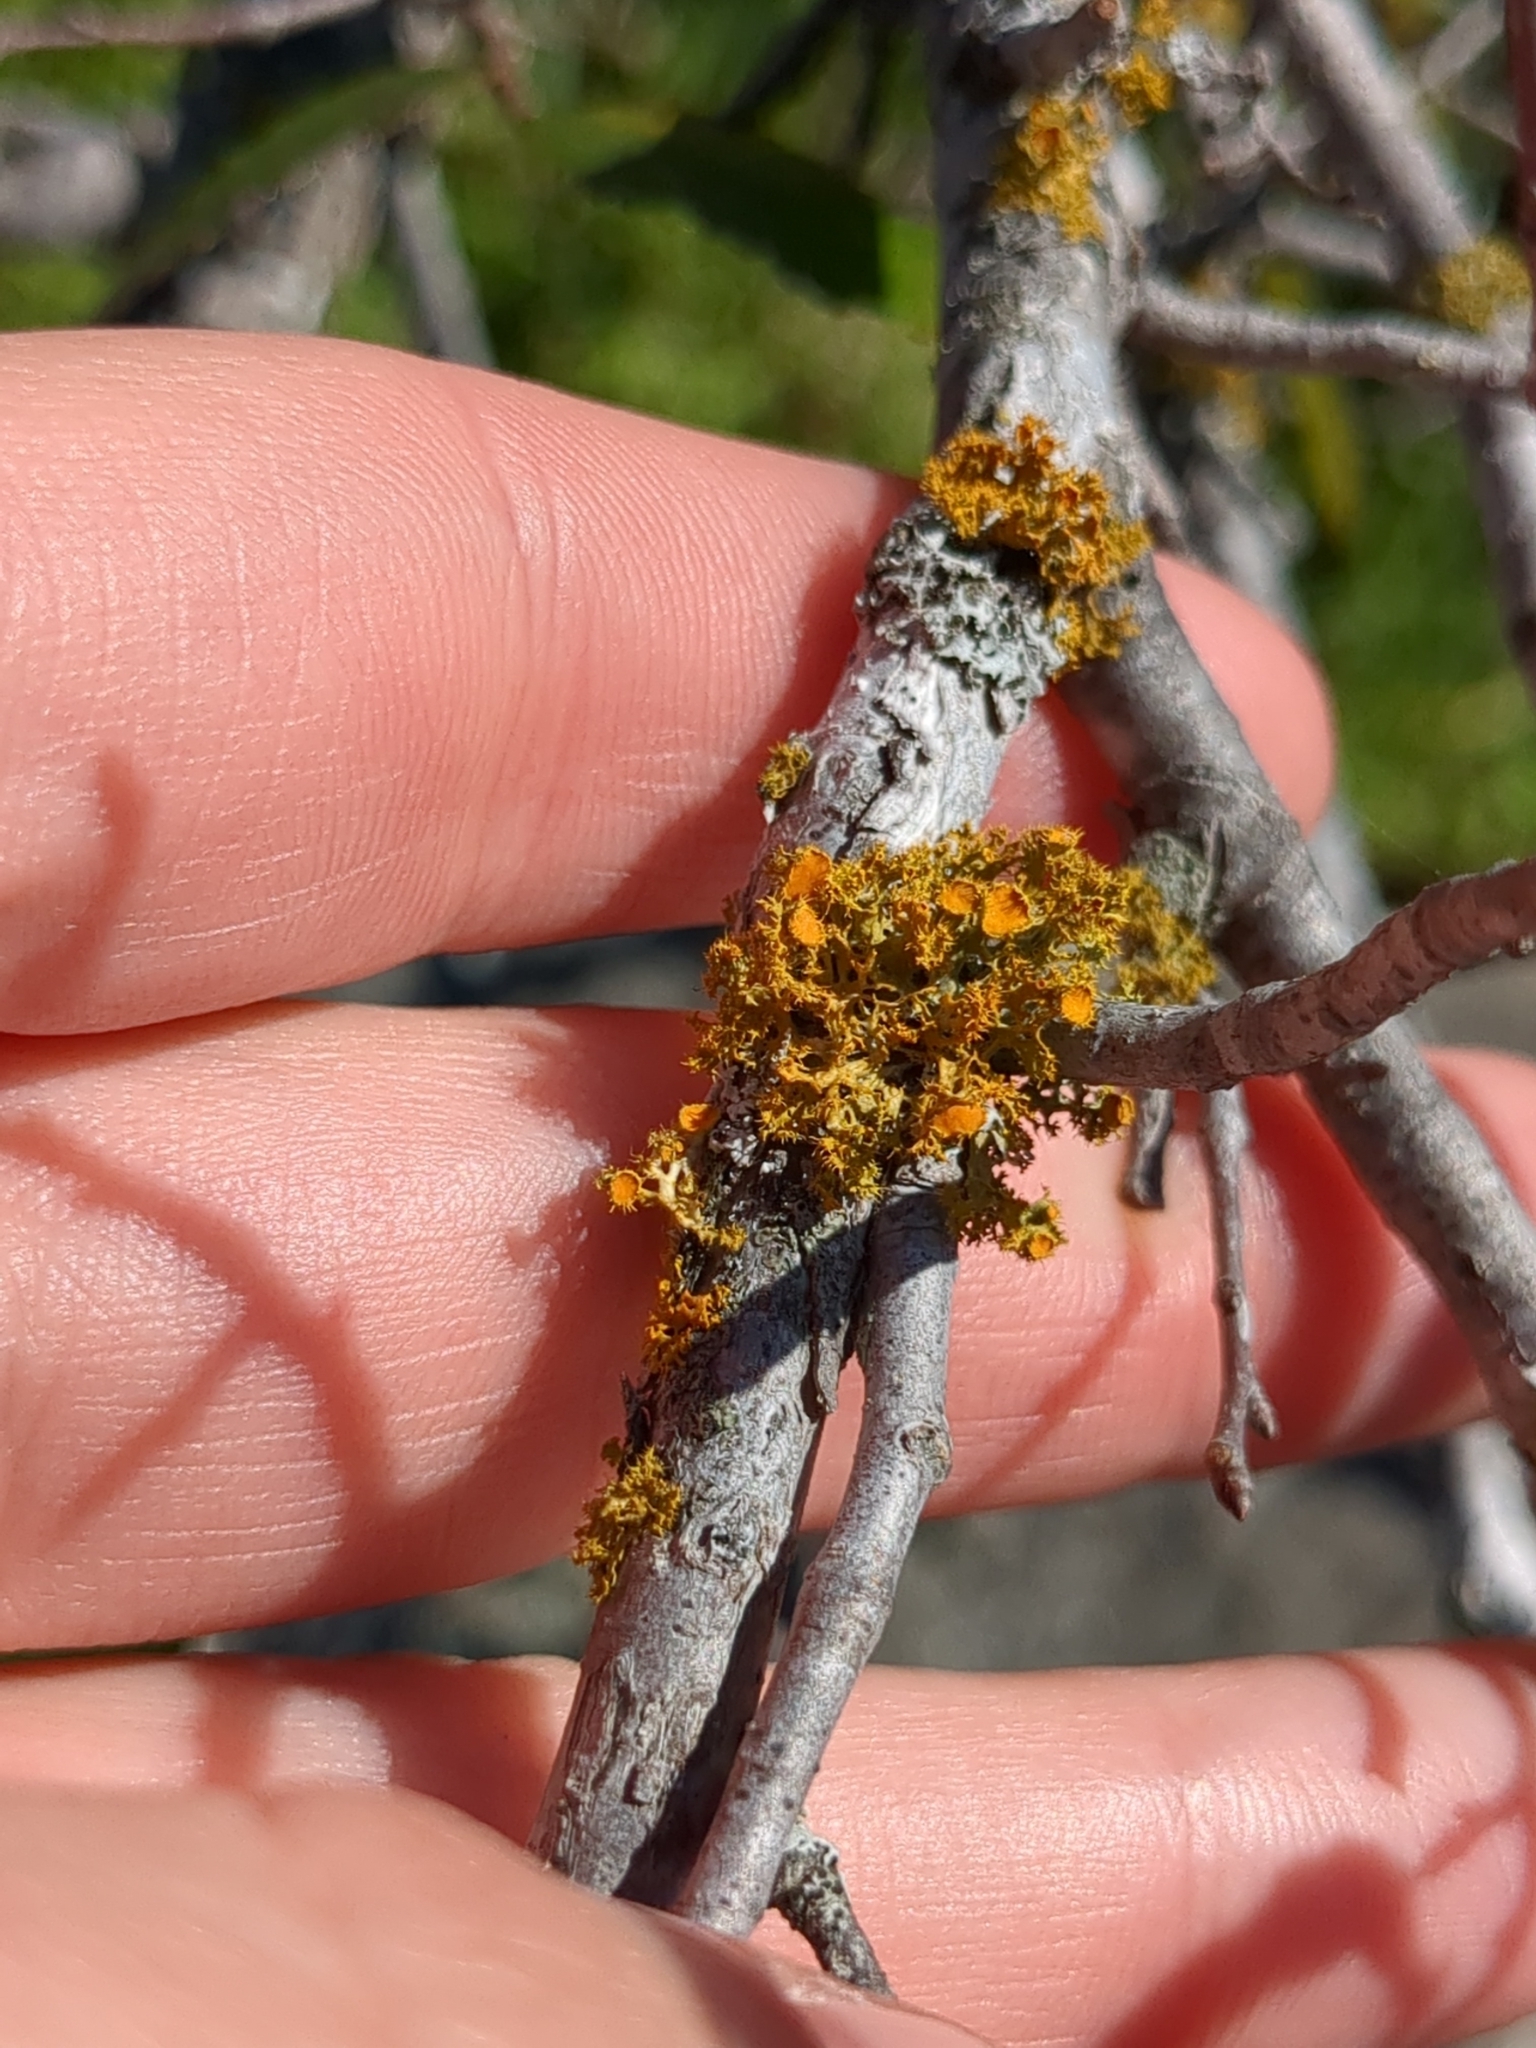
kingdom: Fungi
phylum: Ascomycota
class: Lecanoromycetes
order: Teloschistales
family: Teloschistaceae
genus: Niorma
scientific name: Niorma chrysophthalma
